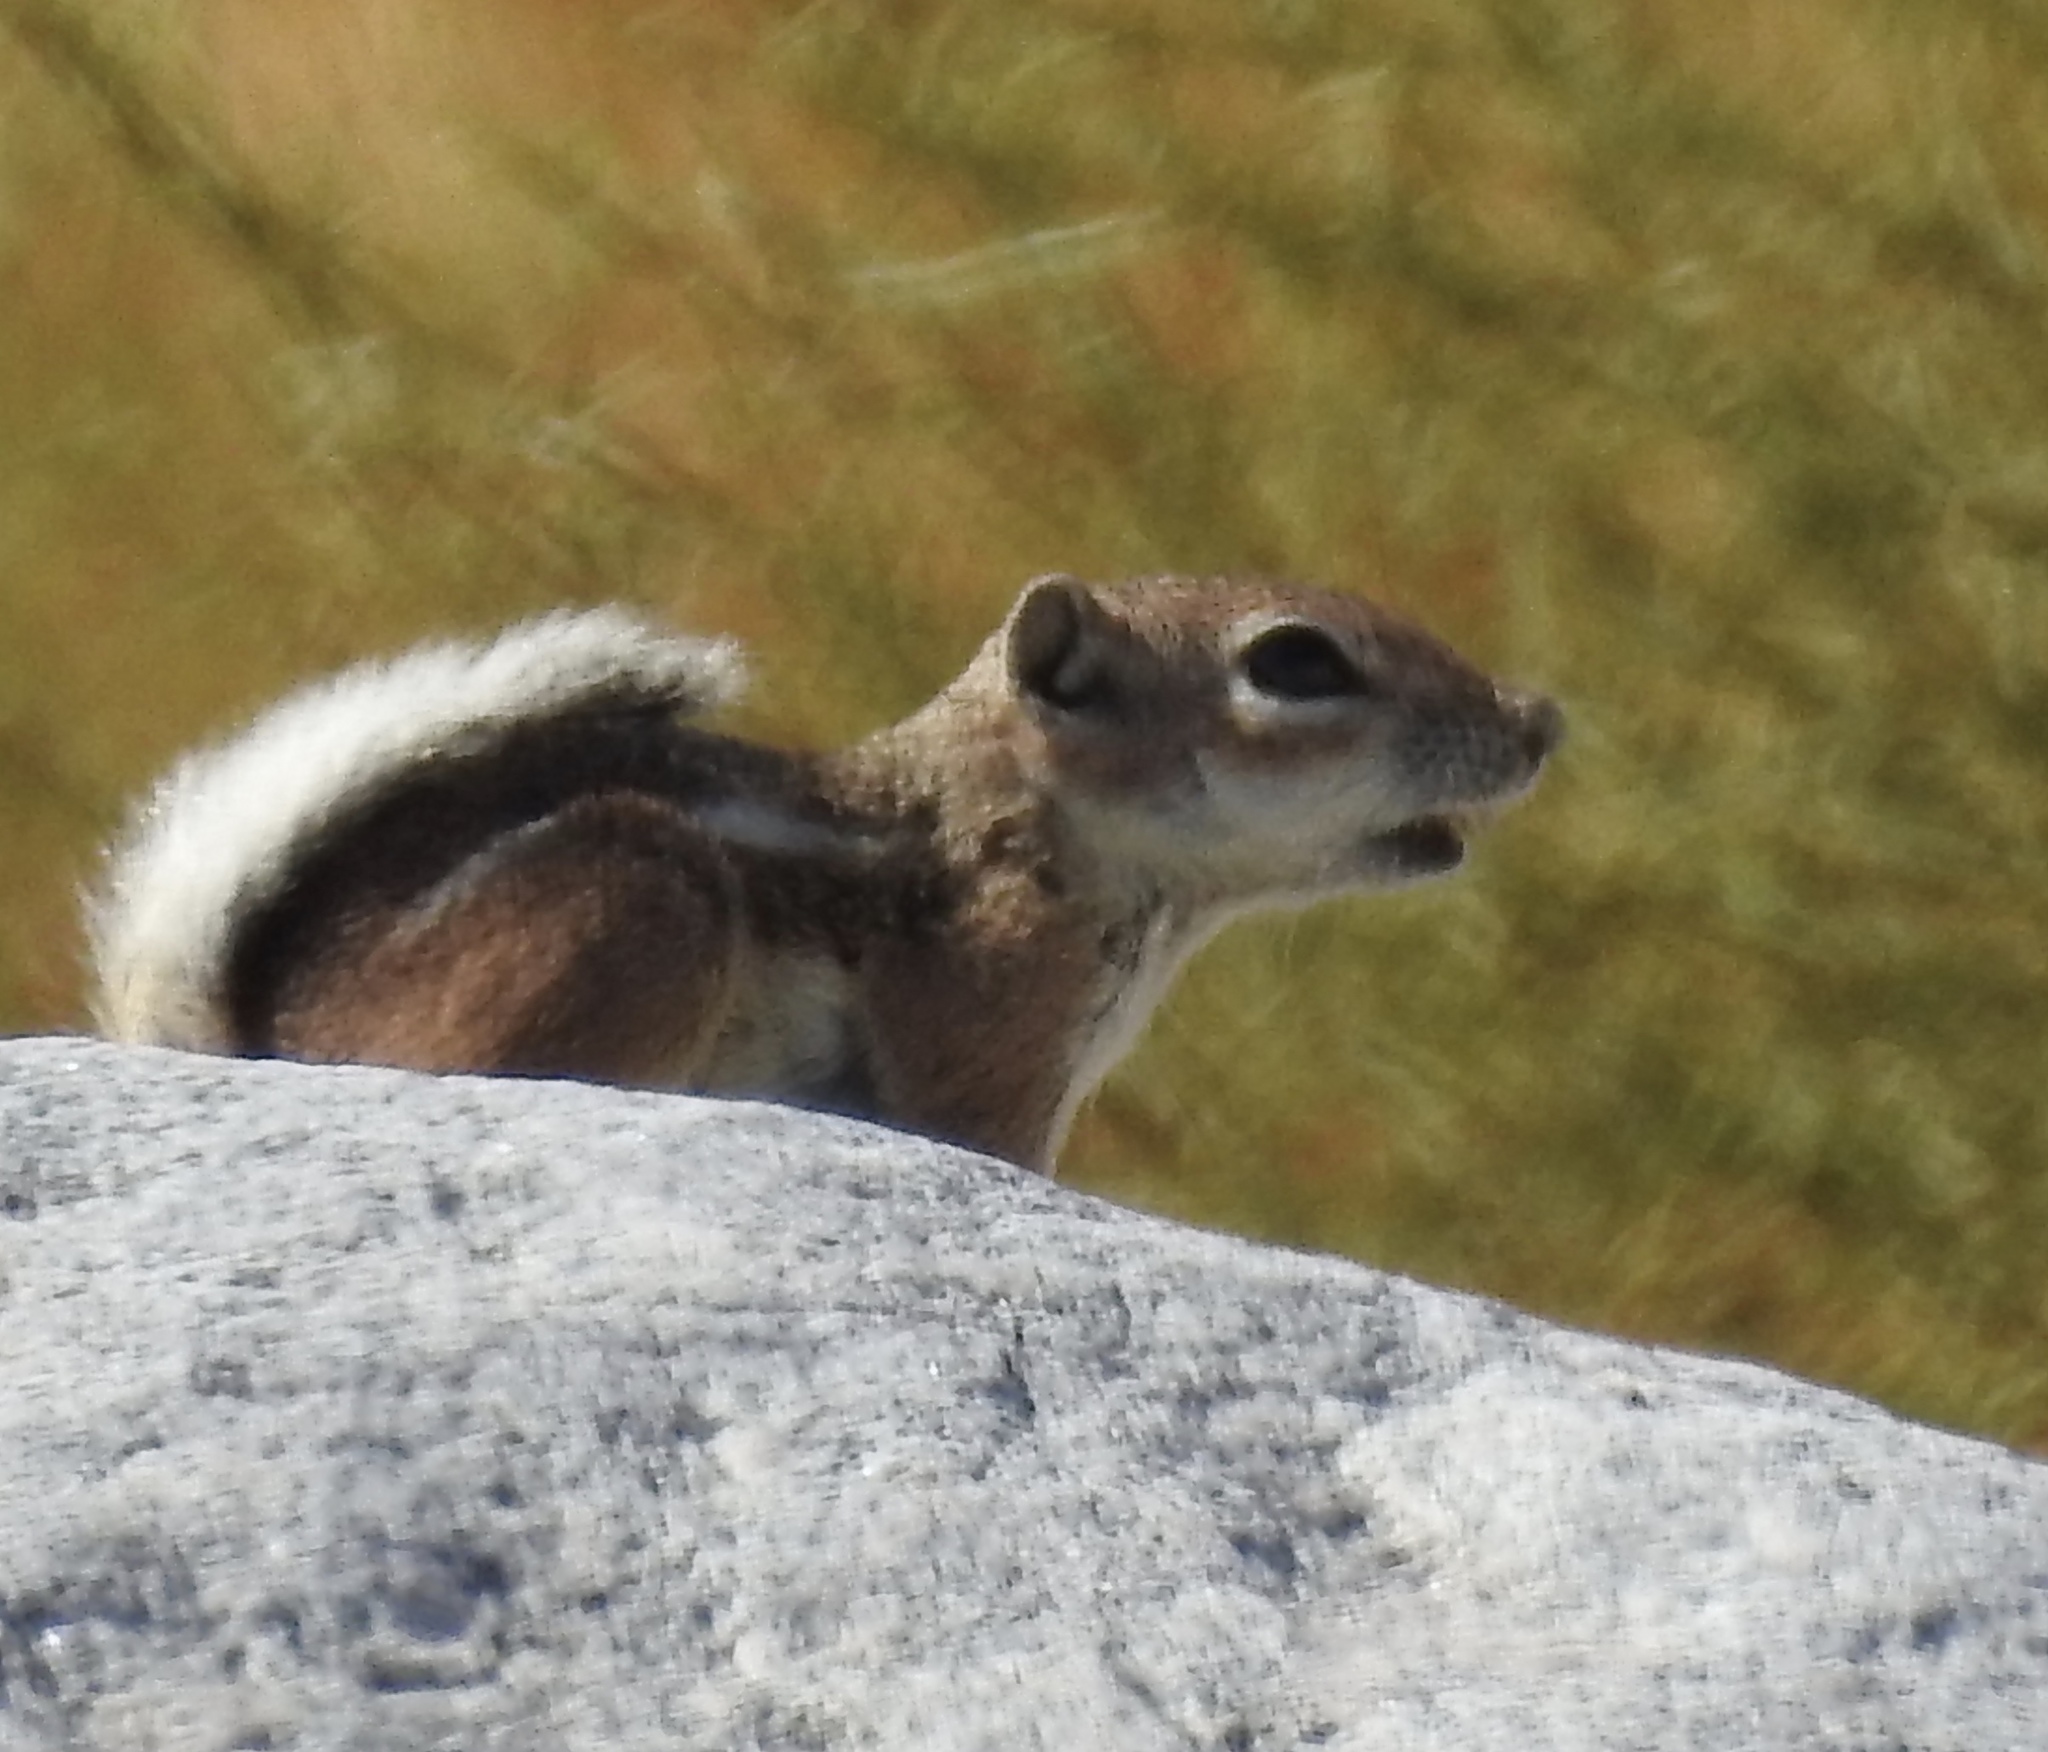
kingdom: Animalia
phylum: Chordata
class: Mammalia
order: Rodentia
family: Sciuridae
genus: Ammospermophilus
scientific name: Ammospermophilus leucurus
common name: White-tailed antelope squirrel
